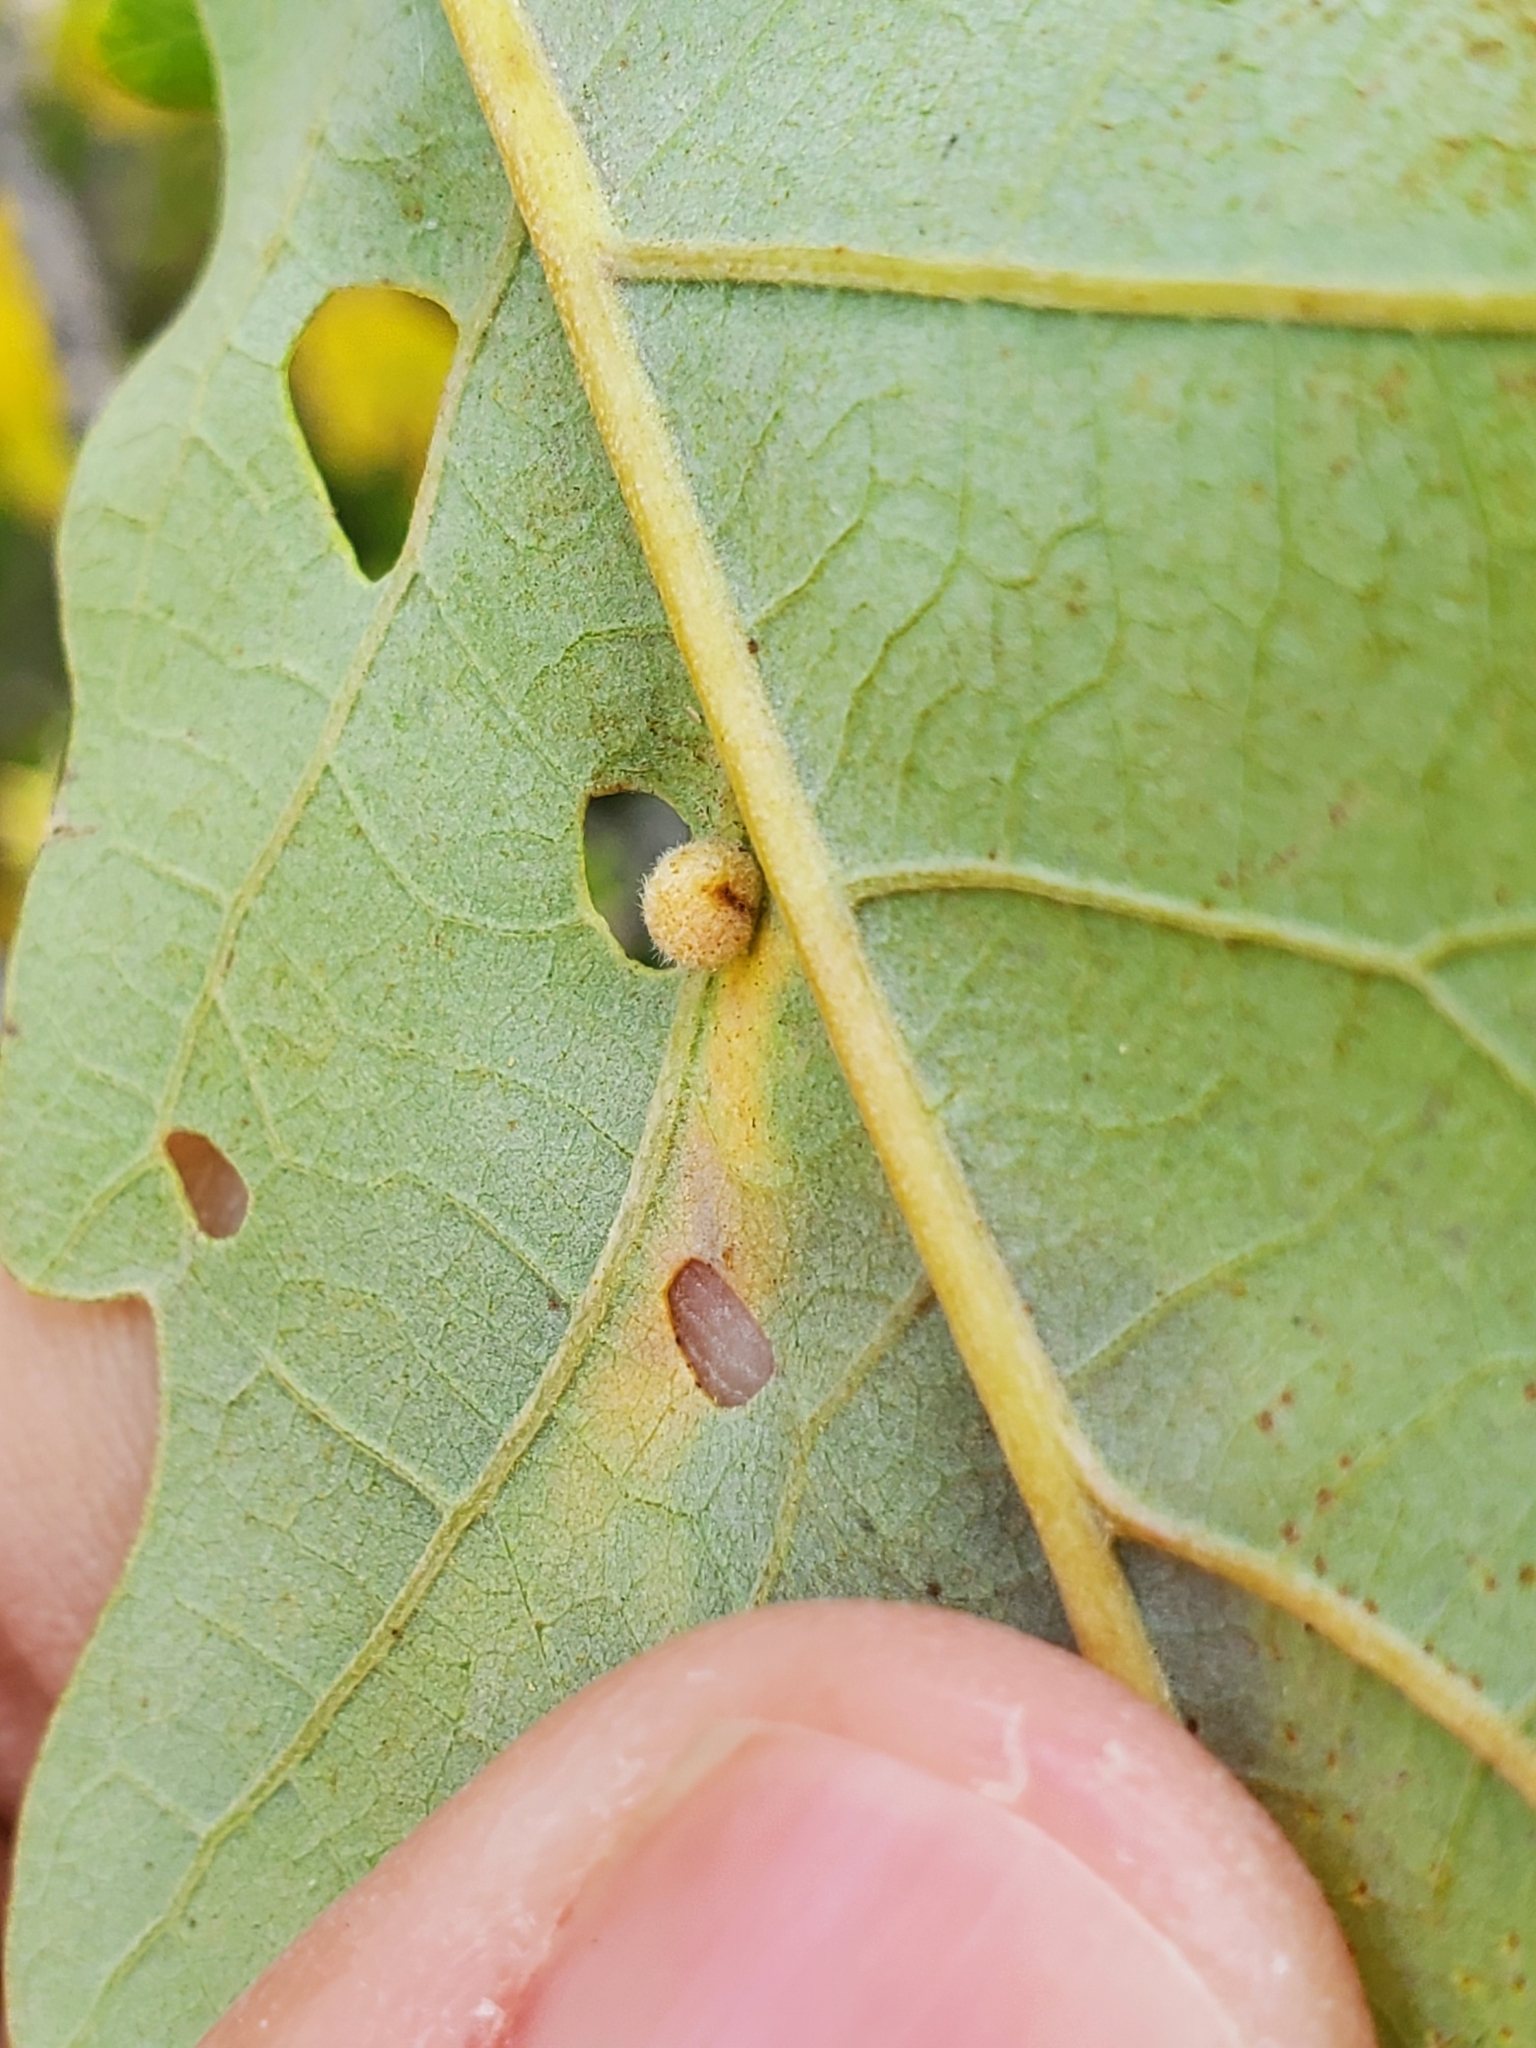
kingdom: Animalia
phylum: Arthropoda
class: Insecta
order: Hymenoptera
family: Cynipidae
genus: Philonix
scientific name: Philonix fulvicollis
